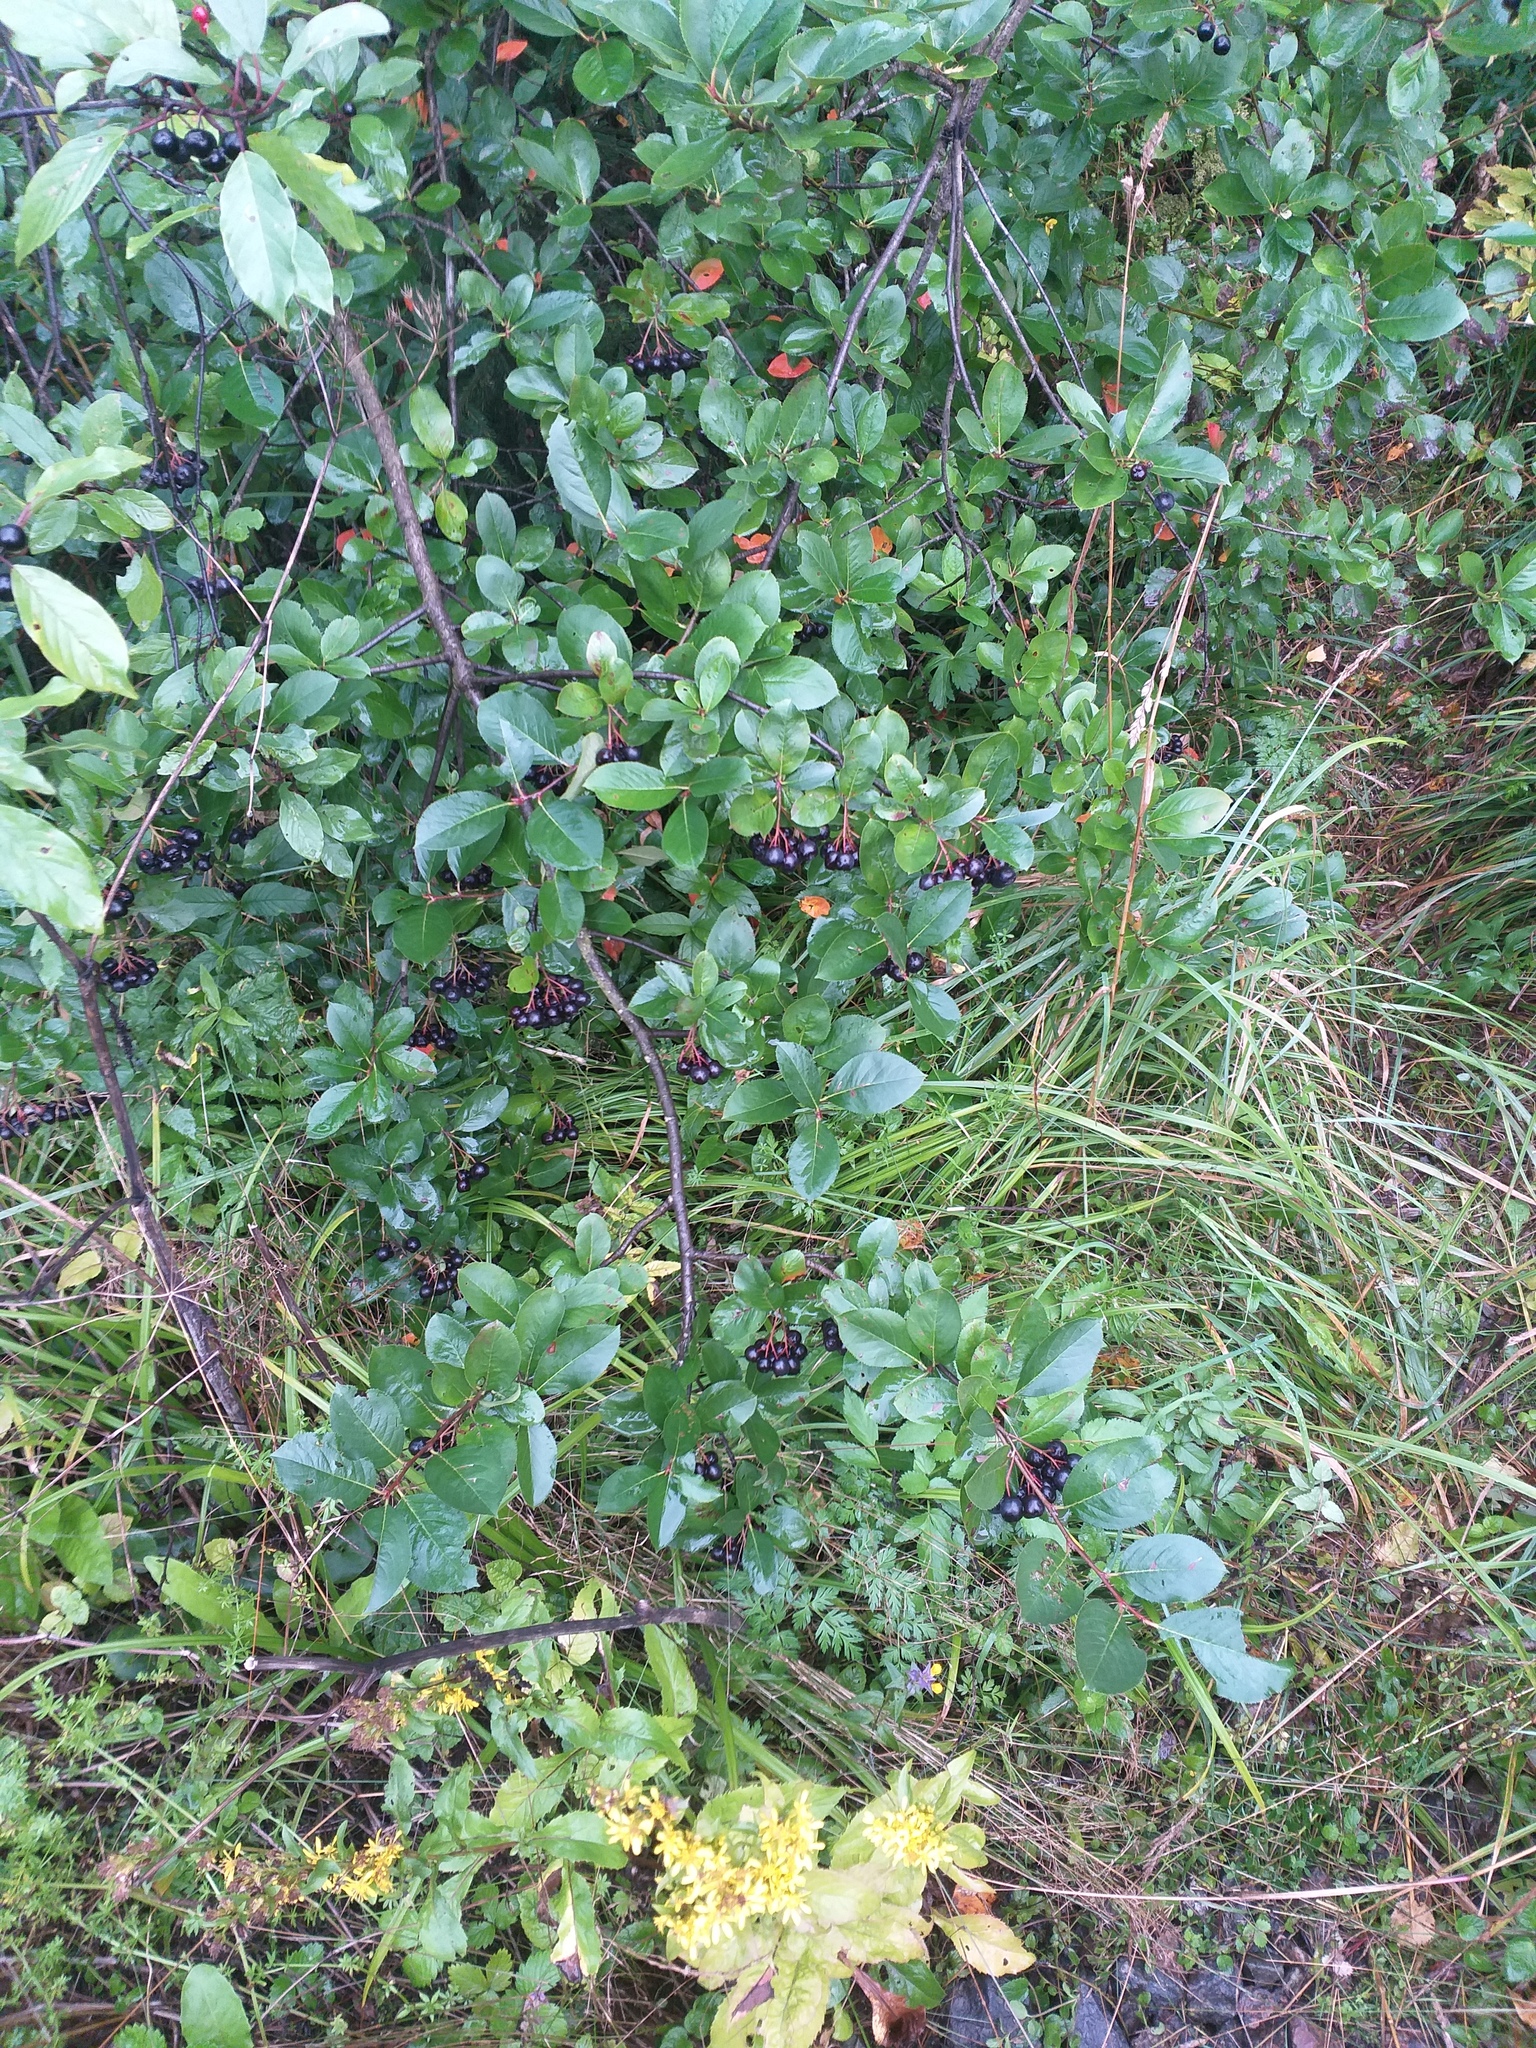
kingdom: Plantae
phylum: Tracheophyta
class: Magnoliopsida
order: Rosales
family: Rosaceae
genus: Sorbaronia
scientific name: Sorbaronia arsenii
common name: Arsène's mountain-ash
